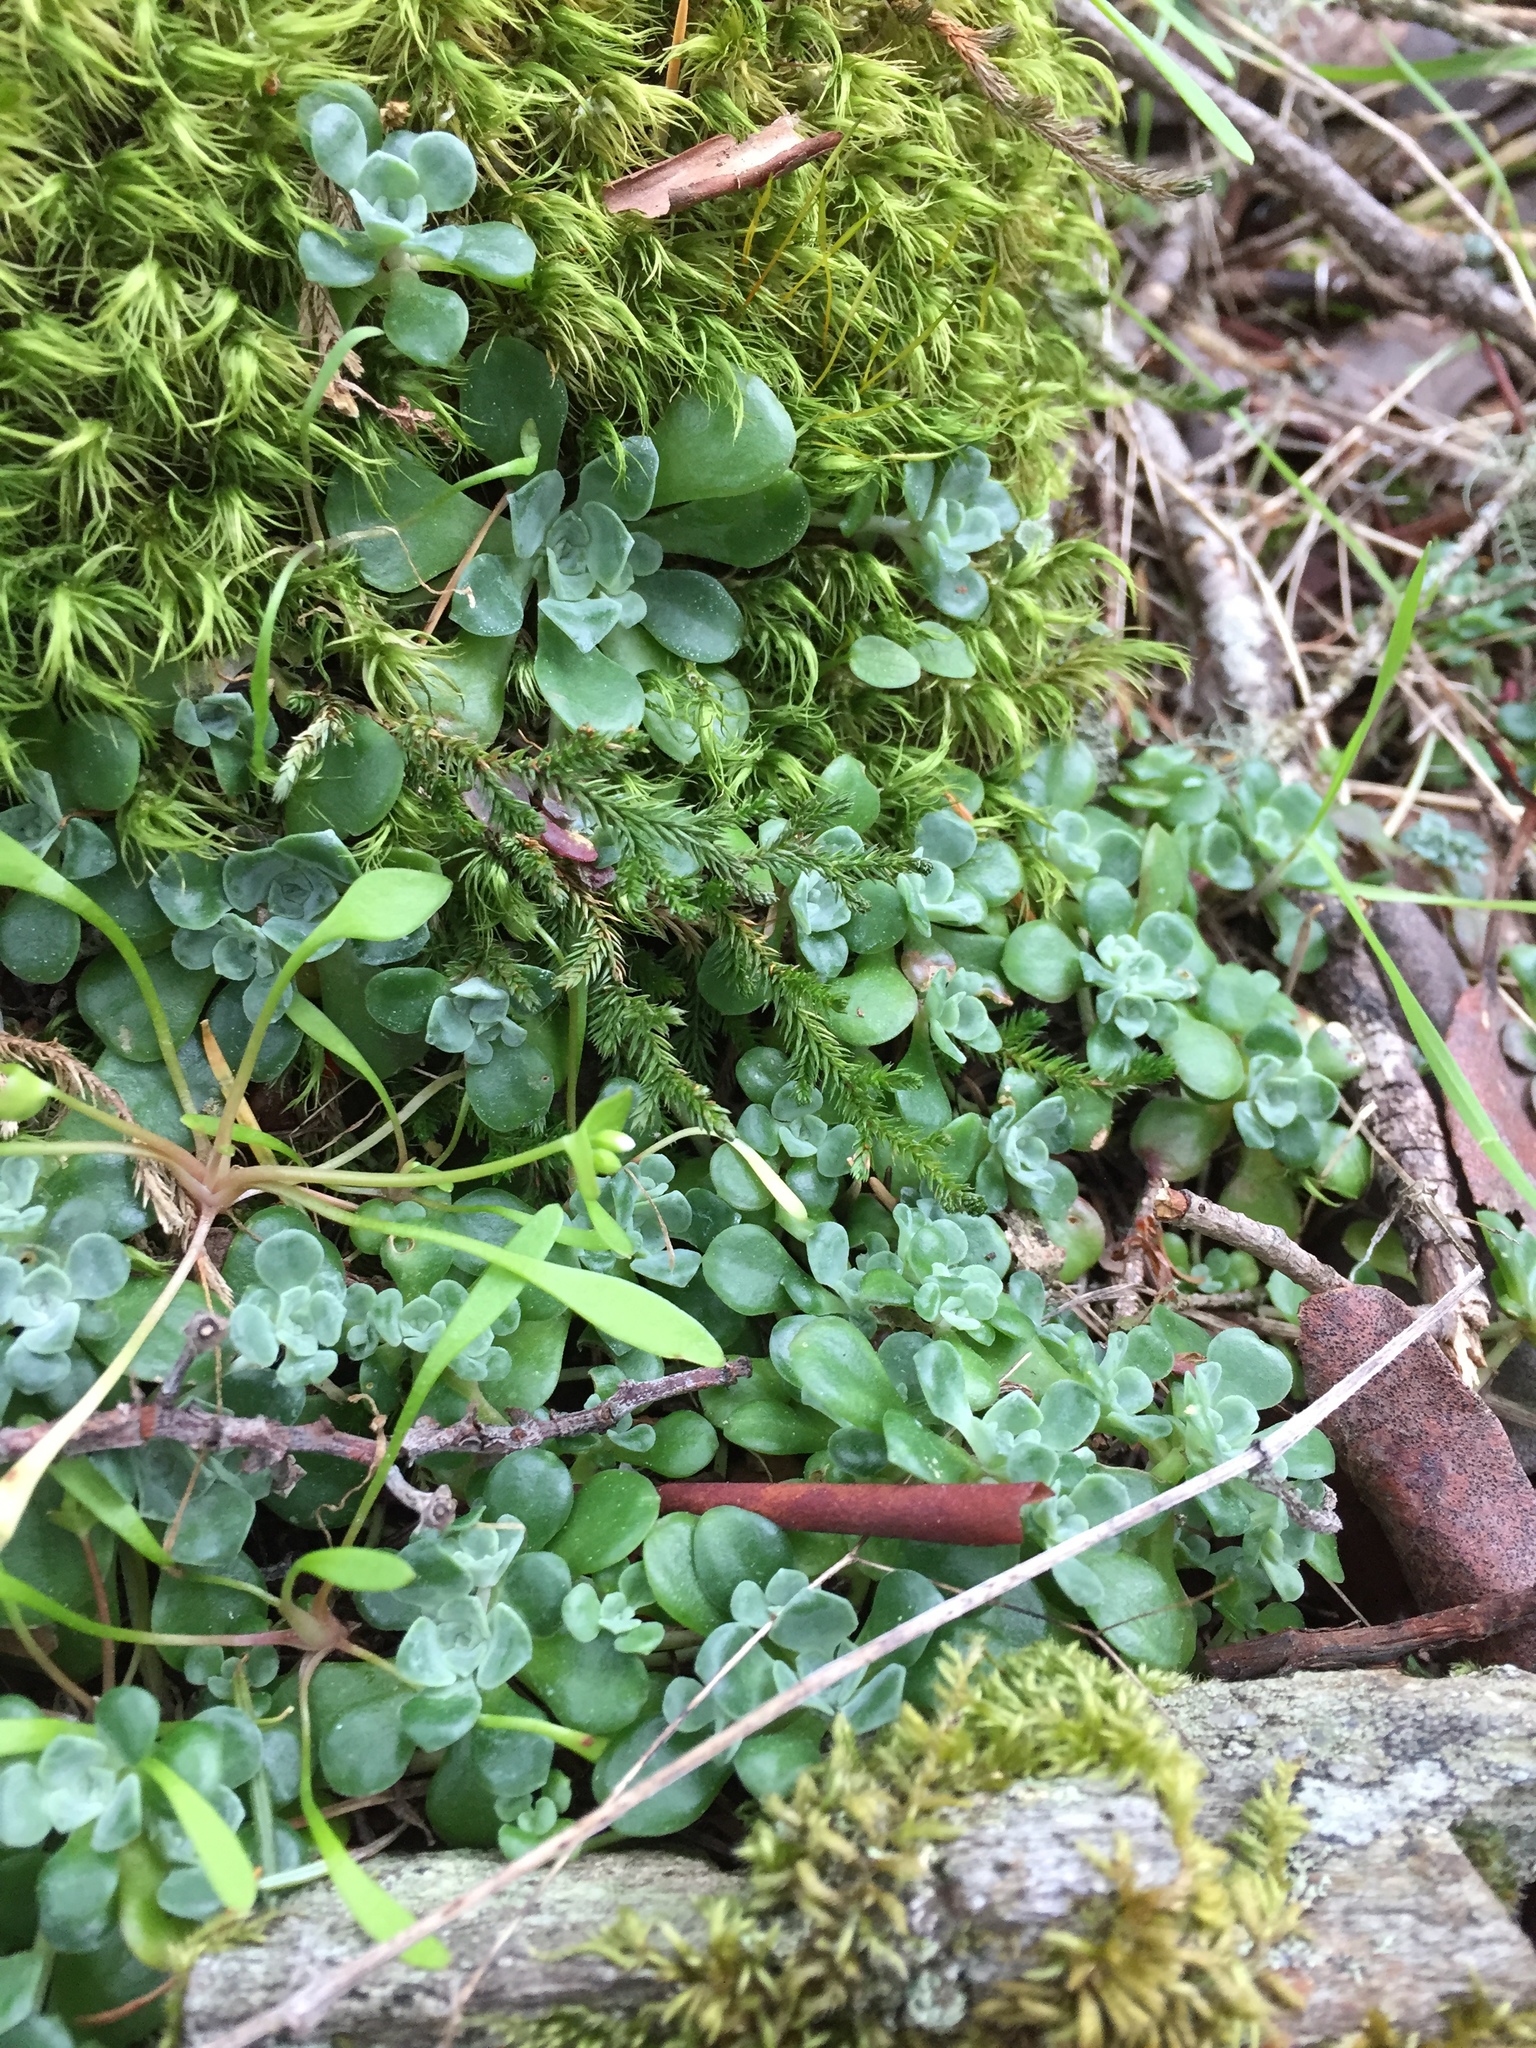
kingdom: Plantae
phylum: Tracheophyta
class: Magnoliopsida
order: Saxifragales
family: Crassulaceae
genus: Sedum
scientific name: Sedum spathulifolium
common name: Colorado stonecrop
